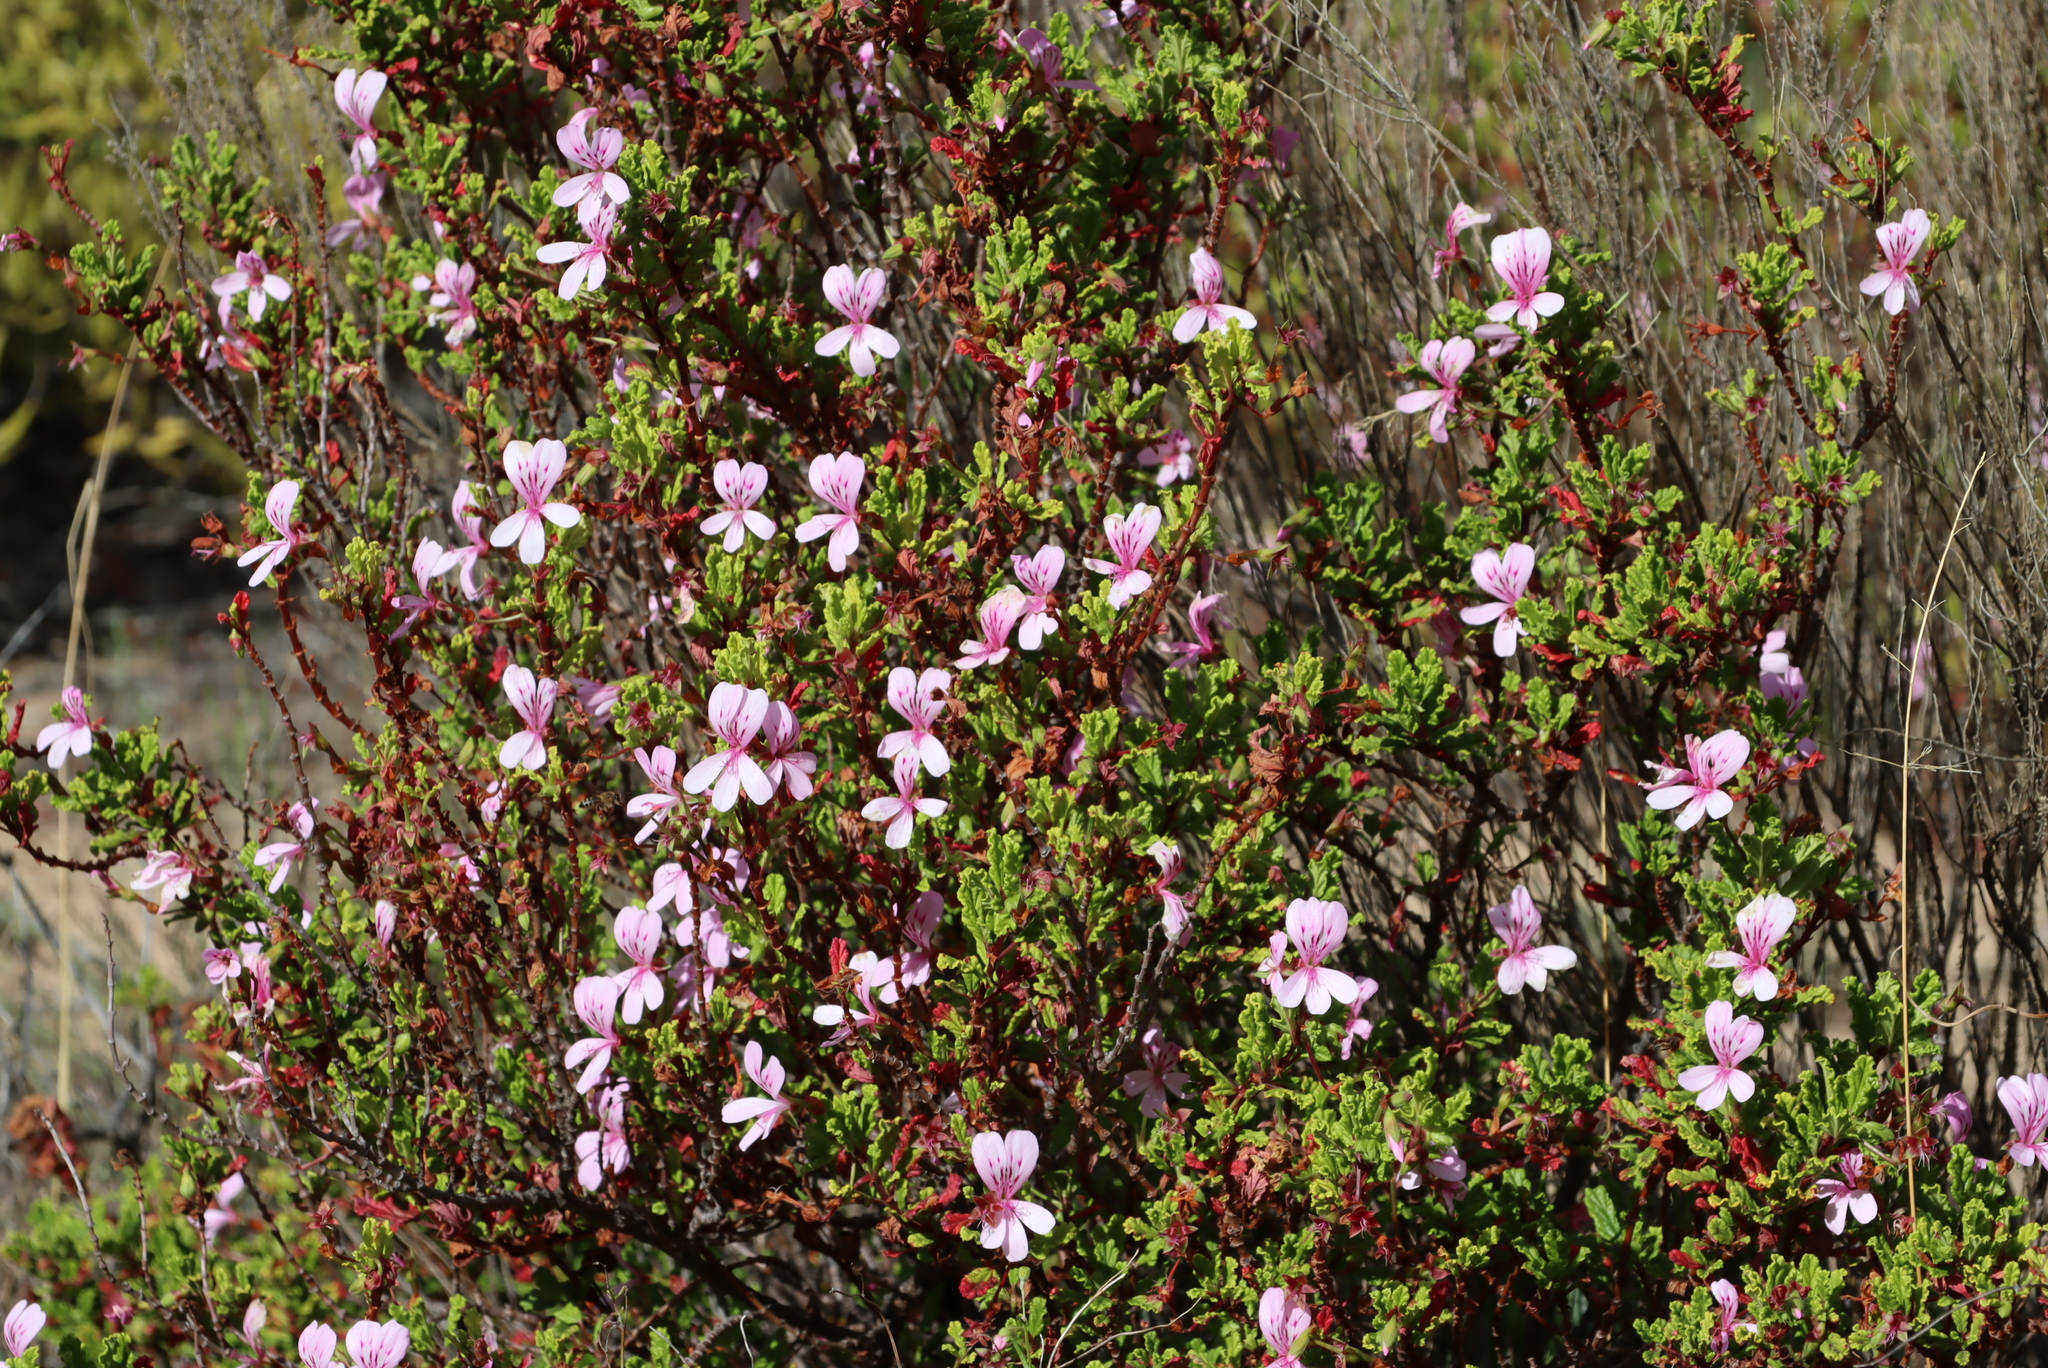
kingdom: Plantae
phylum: Tracheophyta
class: Magnoliopsida
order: Geraniales
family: Geraniaceae
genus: Pelargonium
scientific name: Pelargonium panduriforme
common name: Oakleaf garden geranium
